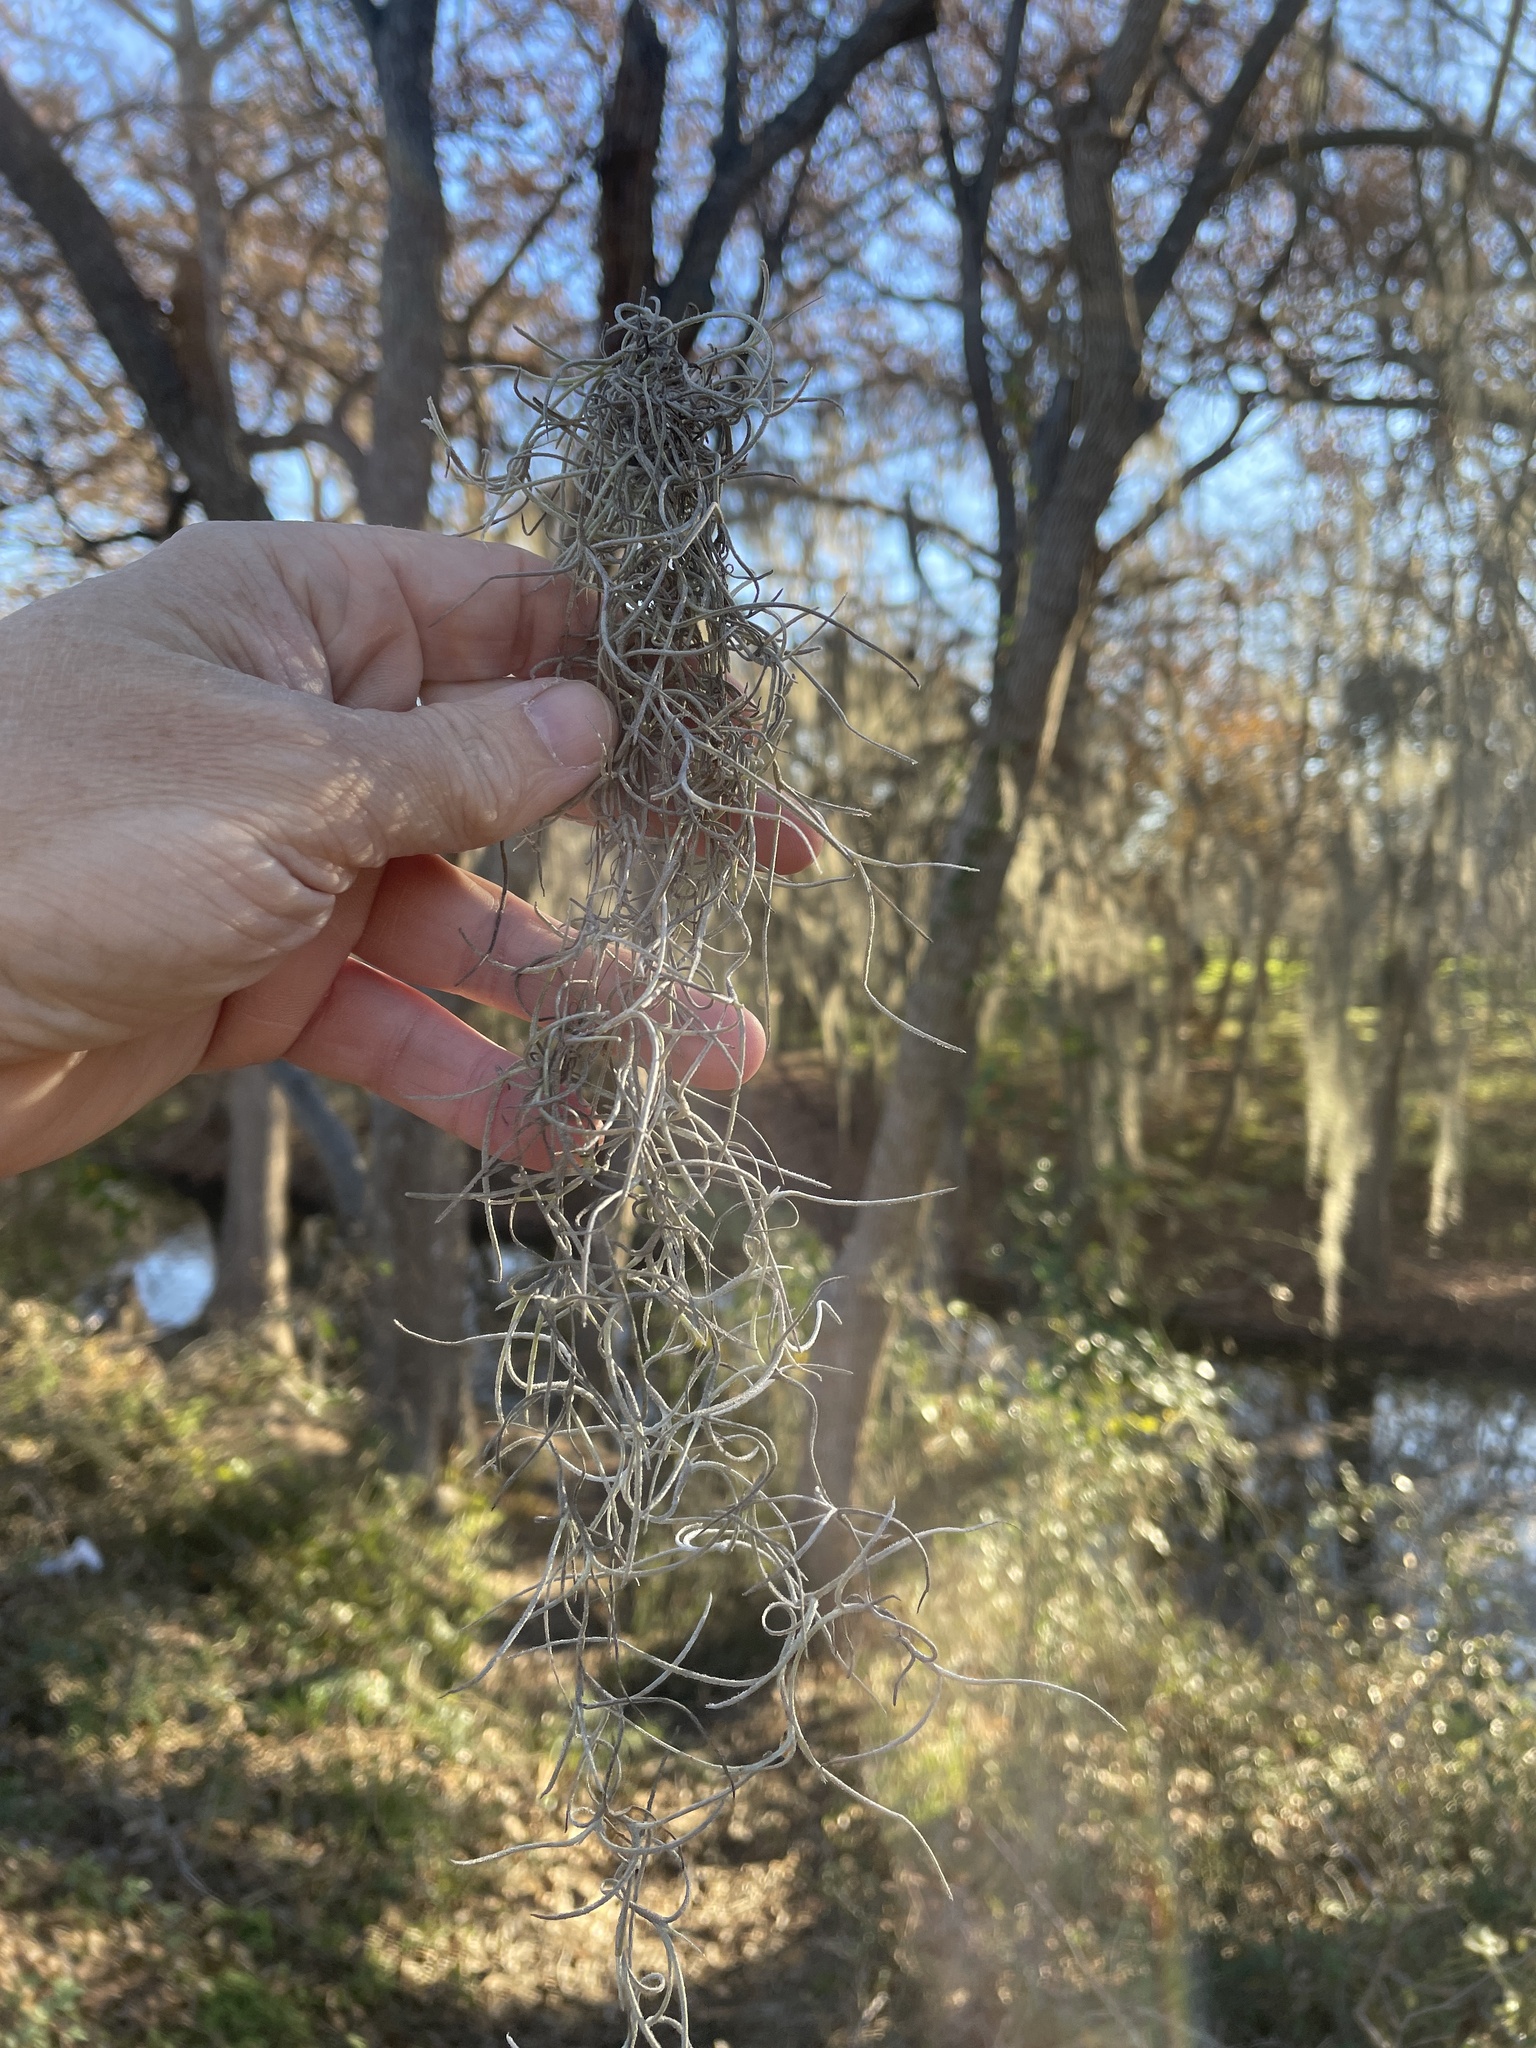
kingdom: Plantae
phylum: Tracheophyta
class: Liliopsida
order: Poales
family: Bromeliaceae
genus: Tillandsia
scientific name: Tillandsia usneoides
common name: Spanish moss
